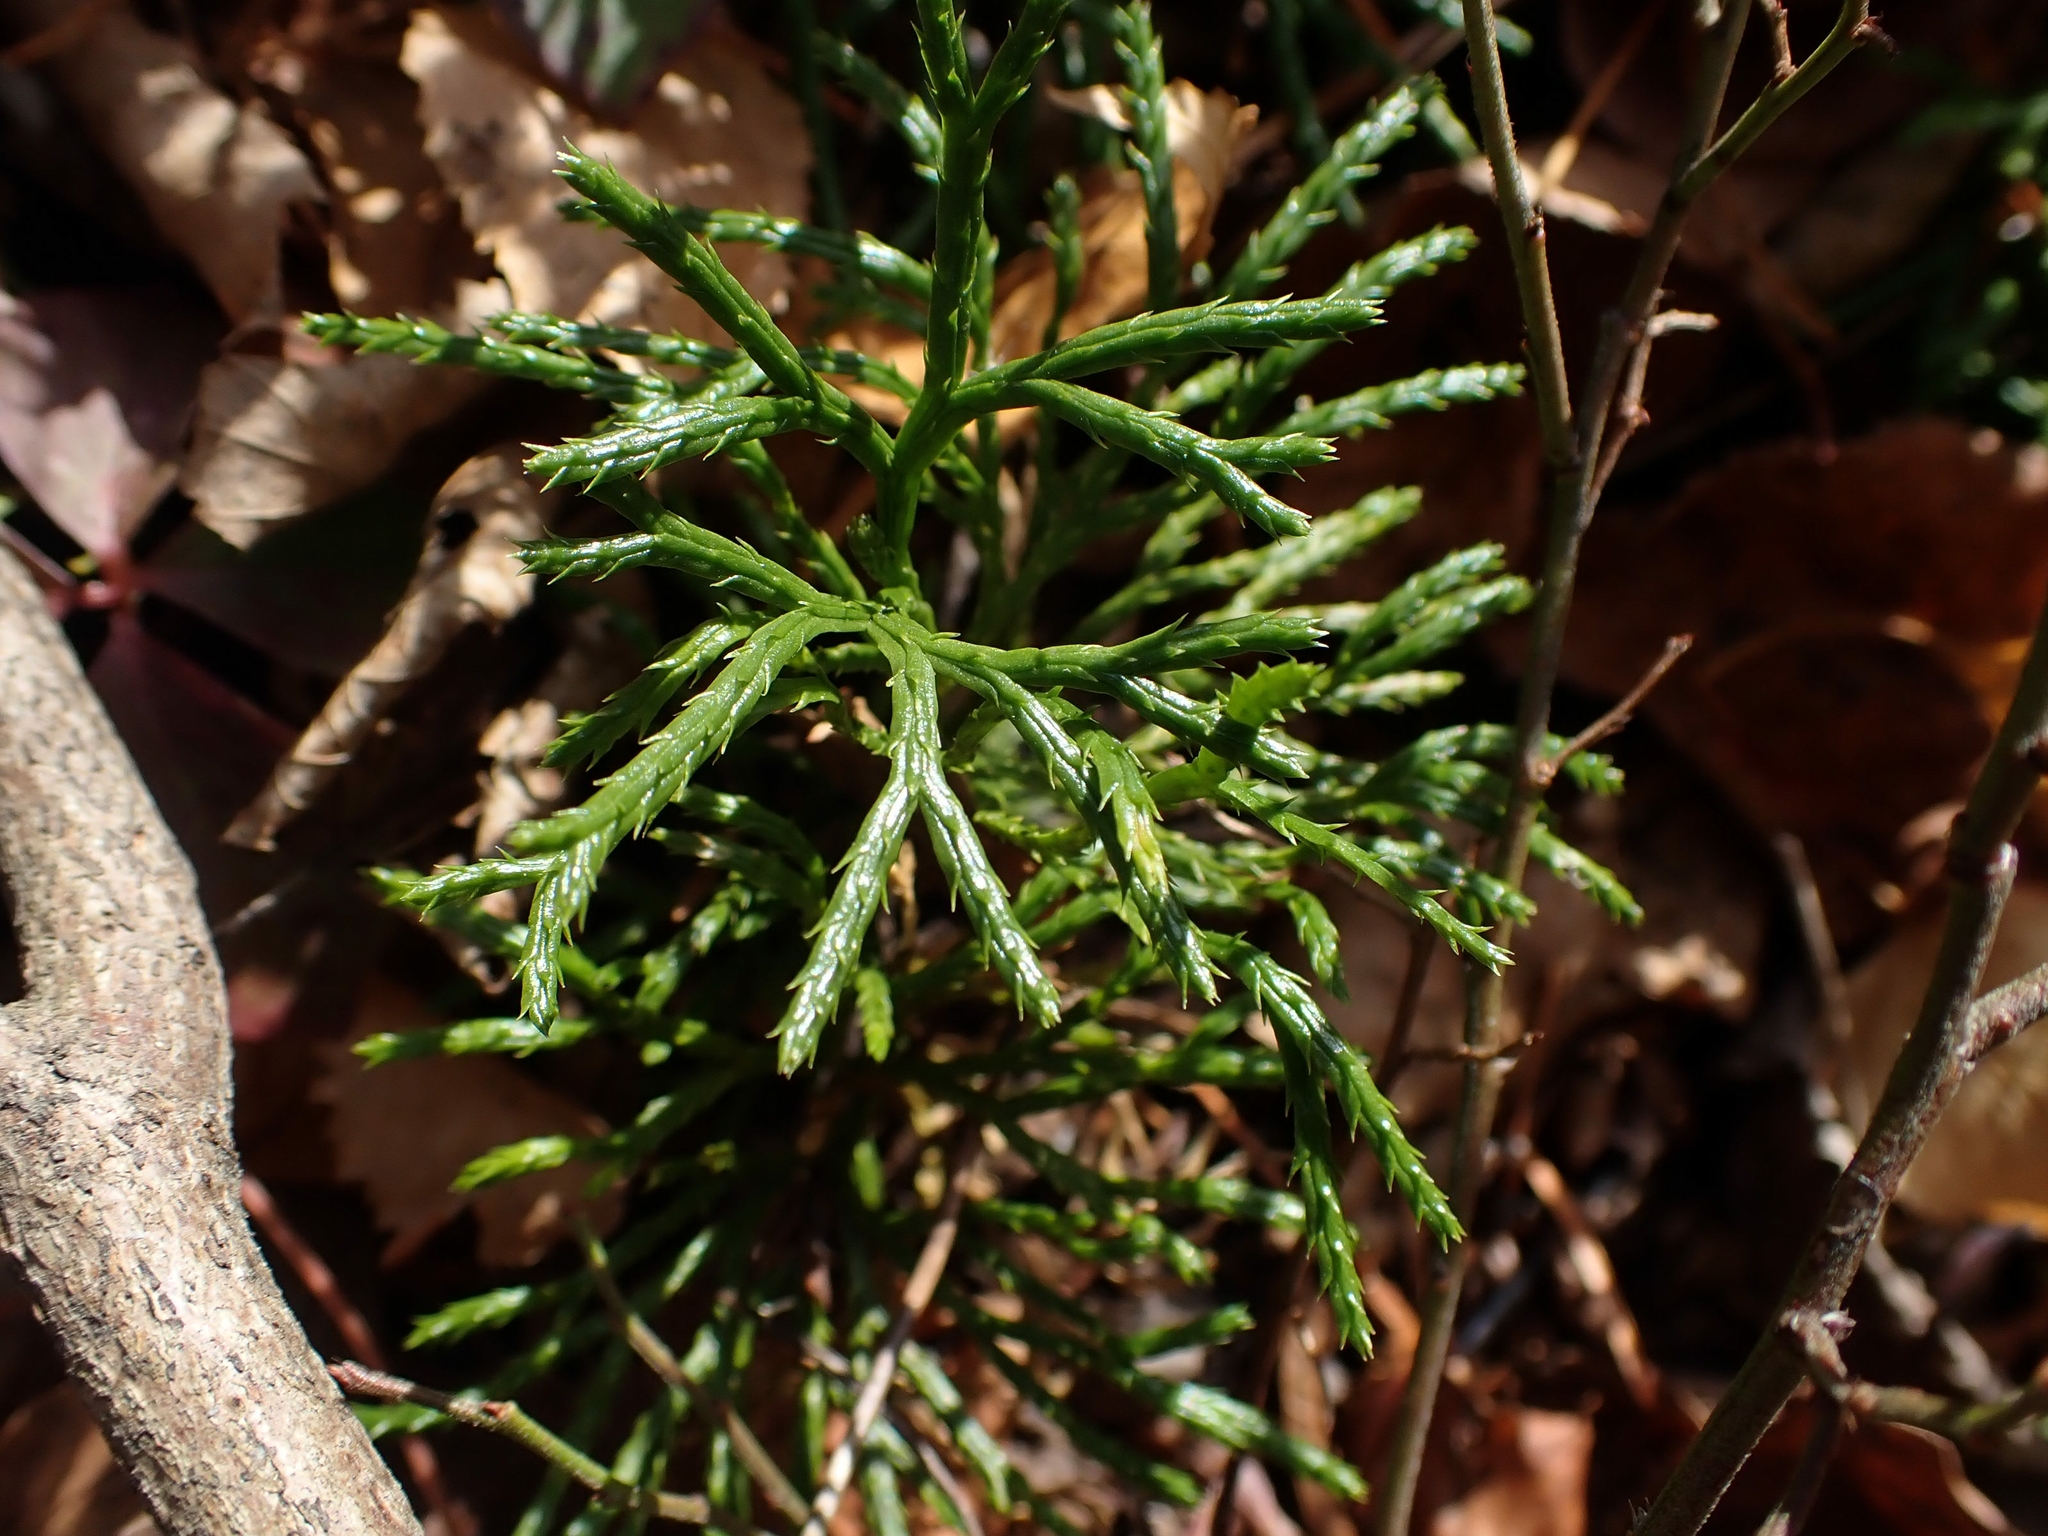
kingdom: Plantae
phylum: Tracheophyta
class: Lycopodiopsida
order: Lycopodiales
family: Lycopodiaceae
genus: Diphasiastrum
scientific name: Diphasiastrum complanatum
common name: Northern running-pine
